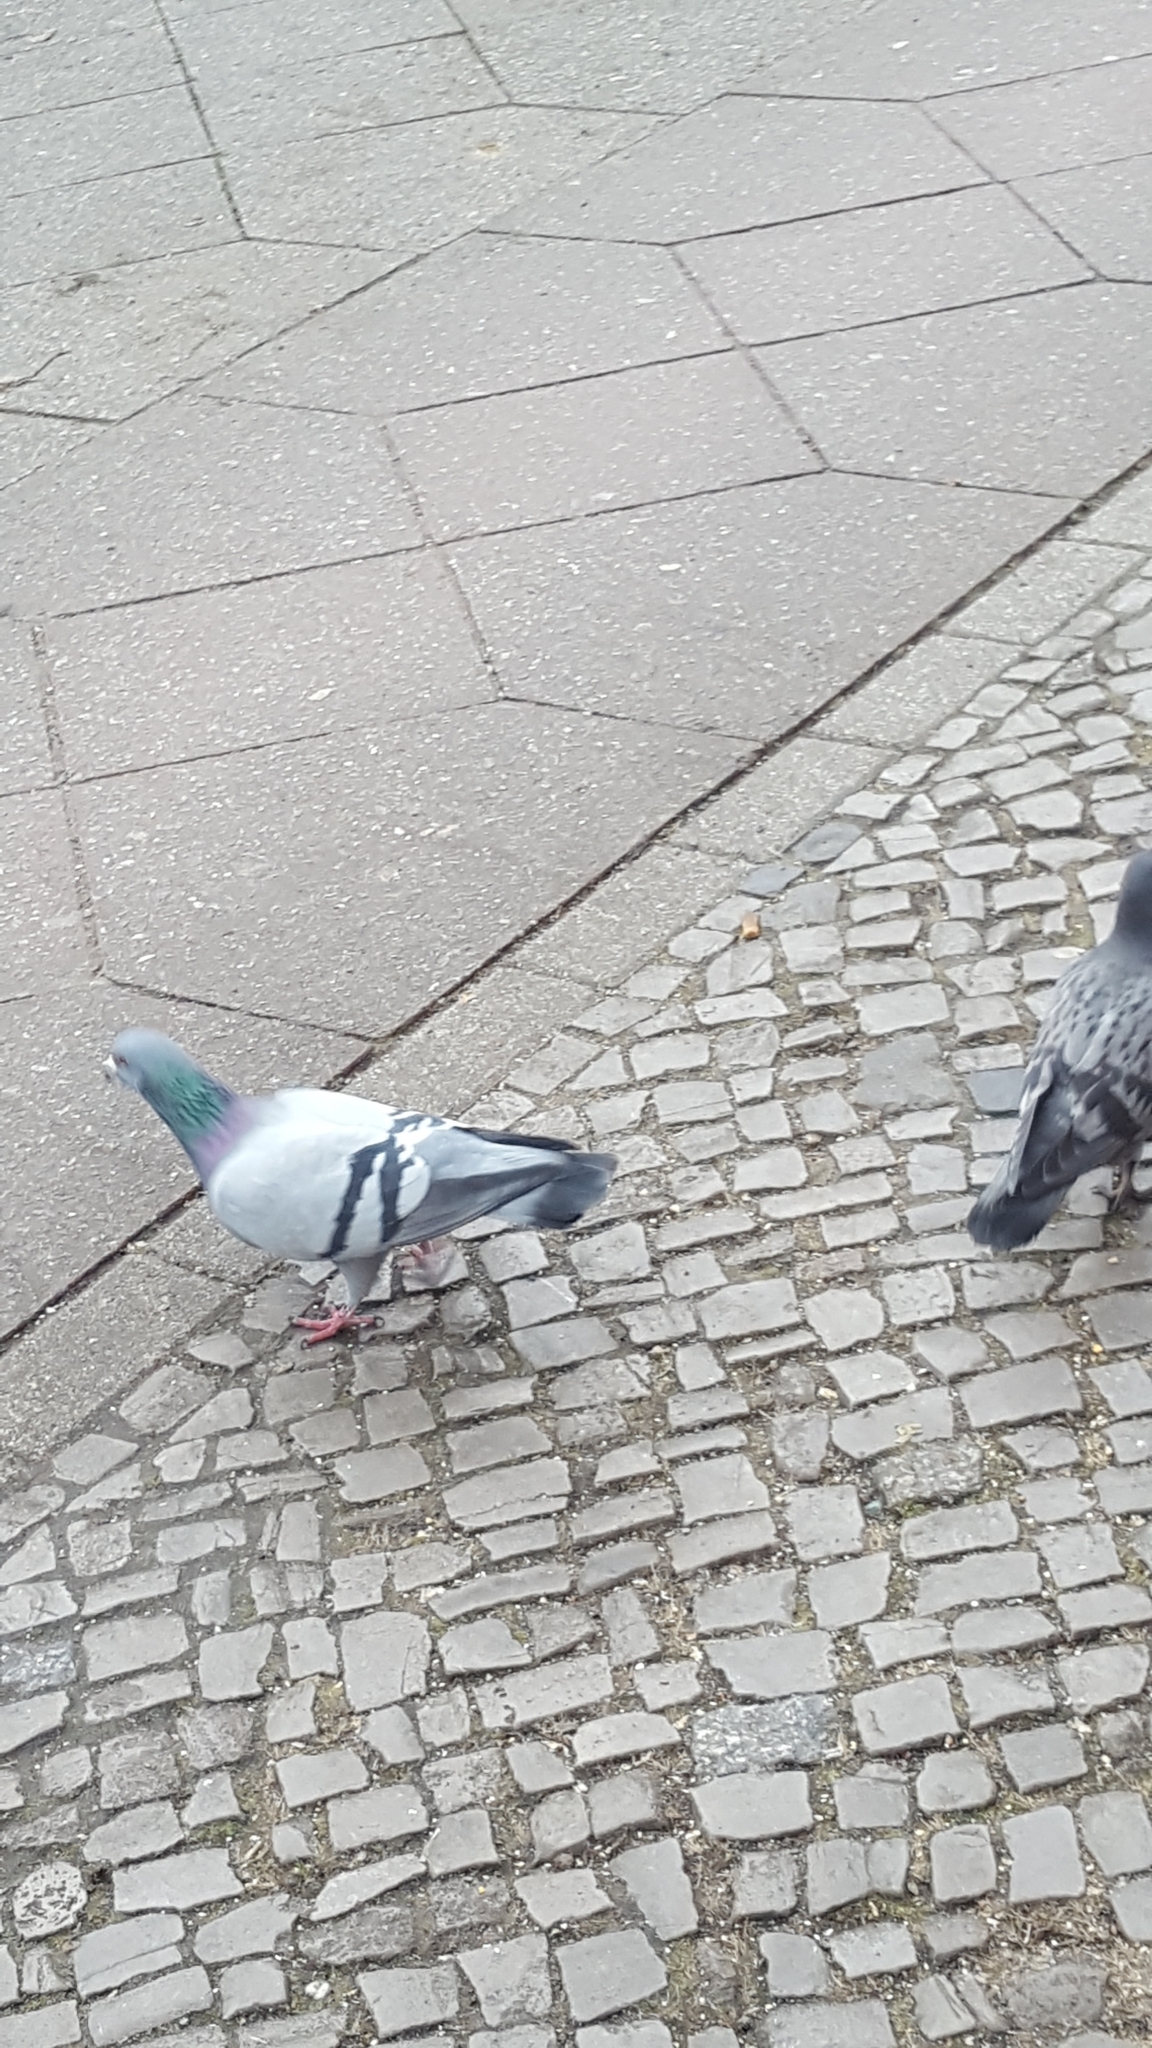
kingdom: Animalia
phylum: Chordata
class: Aves
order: Columbiformes
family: Columbidae
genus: Columba
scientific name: Columba livia
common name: Rock pigeon
